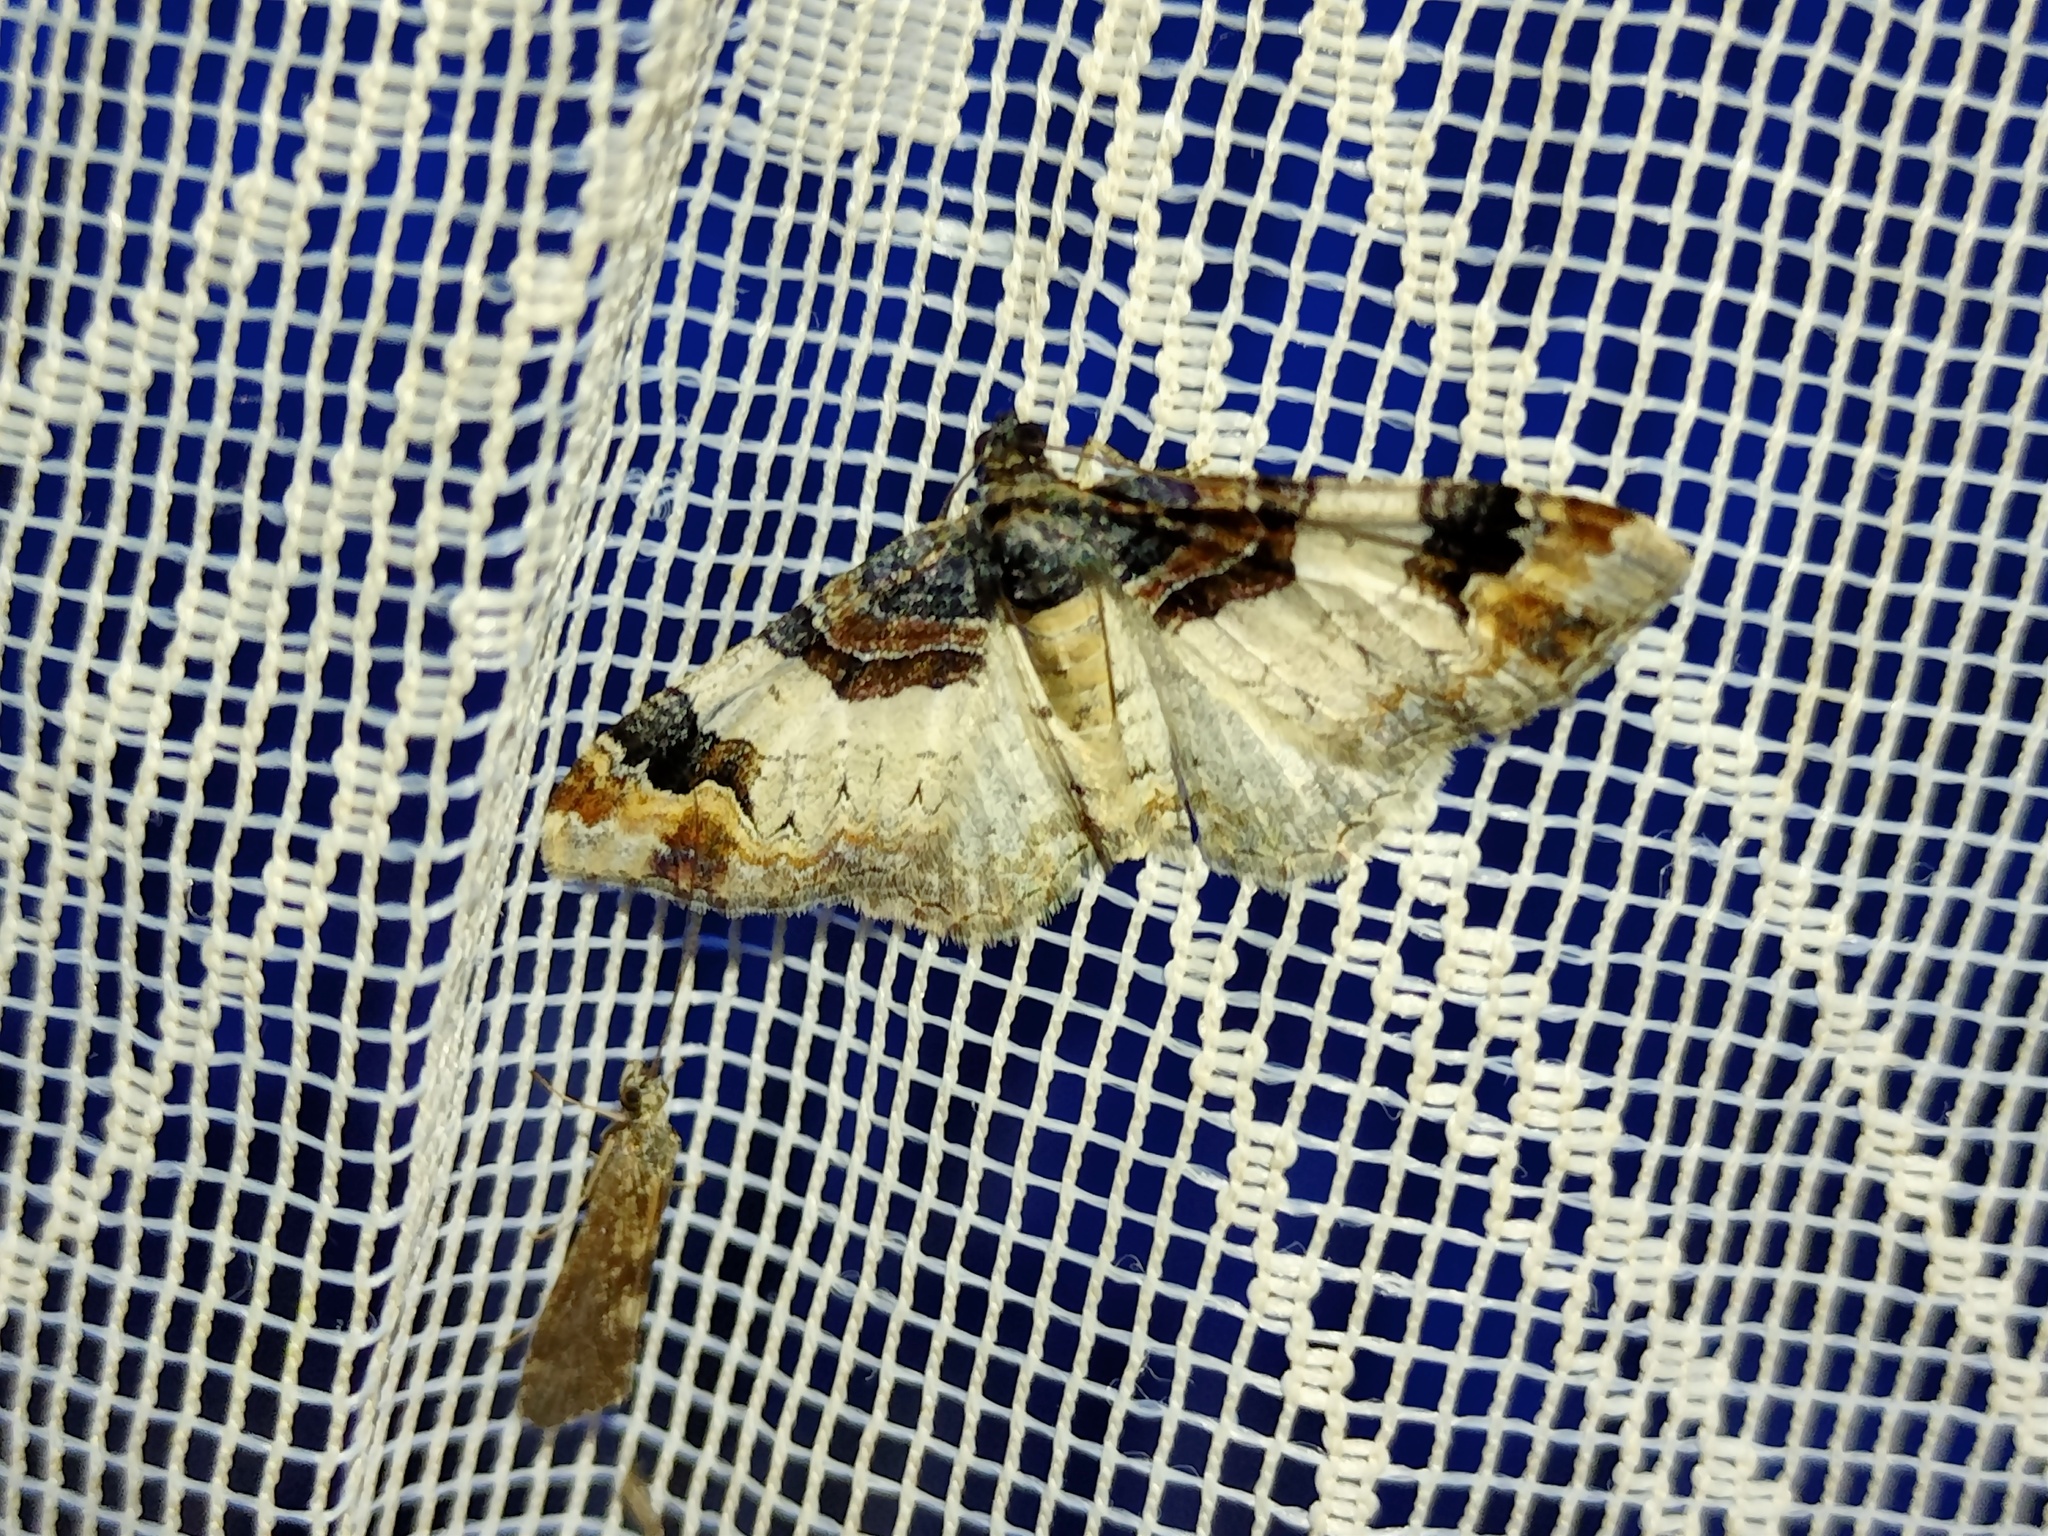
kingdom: Animalia
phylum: Arthropoda
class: Insecta
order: Lepidoptera
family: Geometridae
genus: Catarhoe
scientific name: Catarhoe cuculata
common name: Royal mantle
